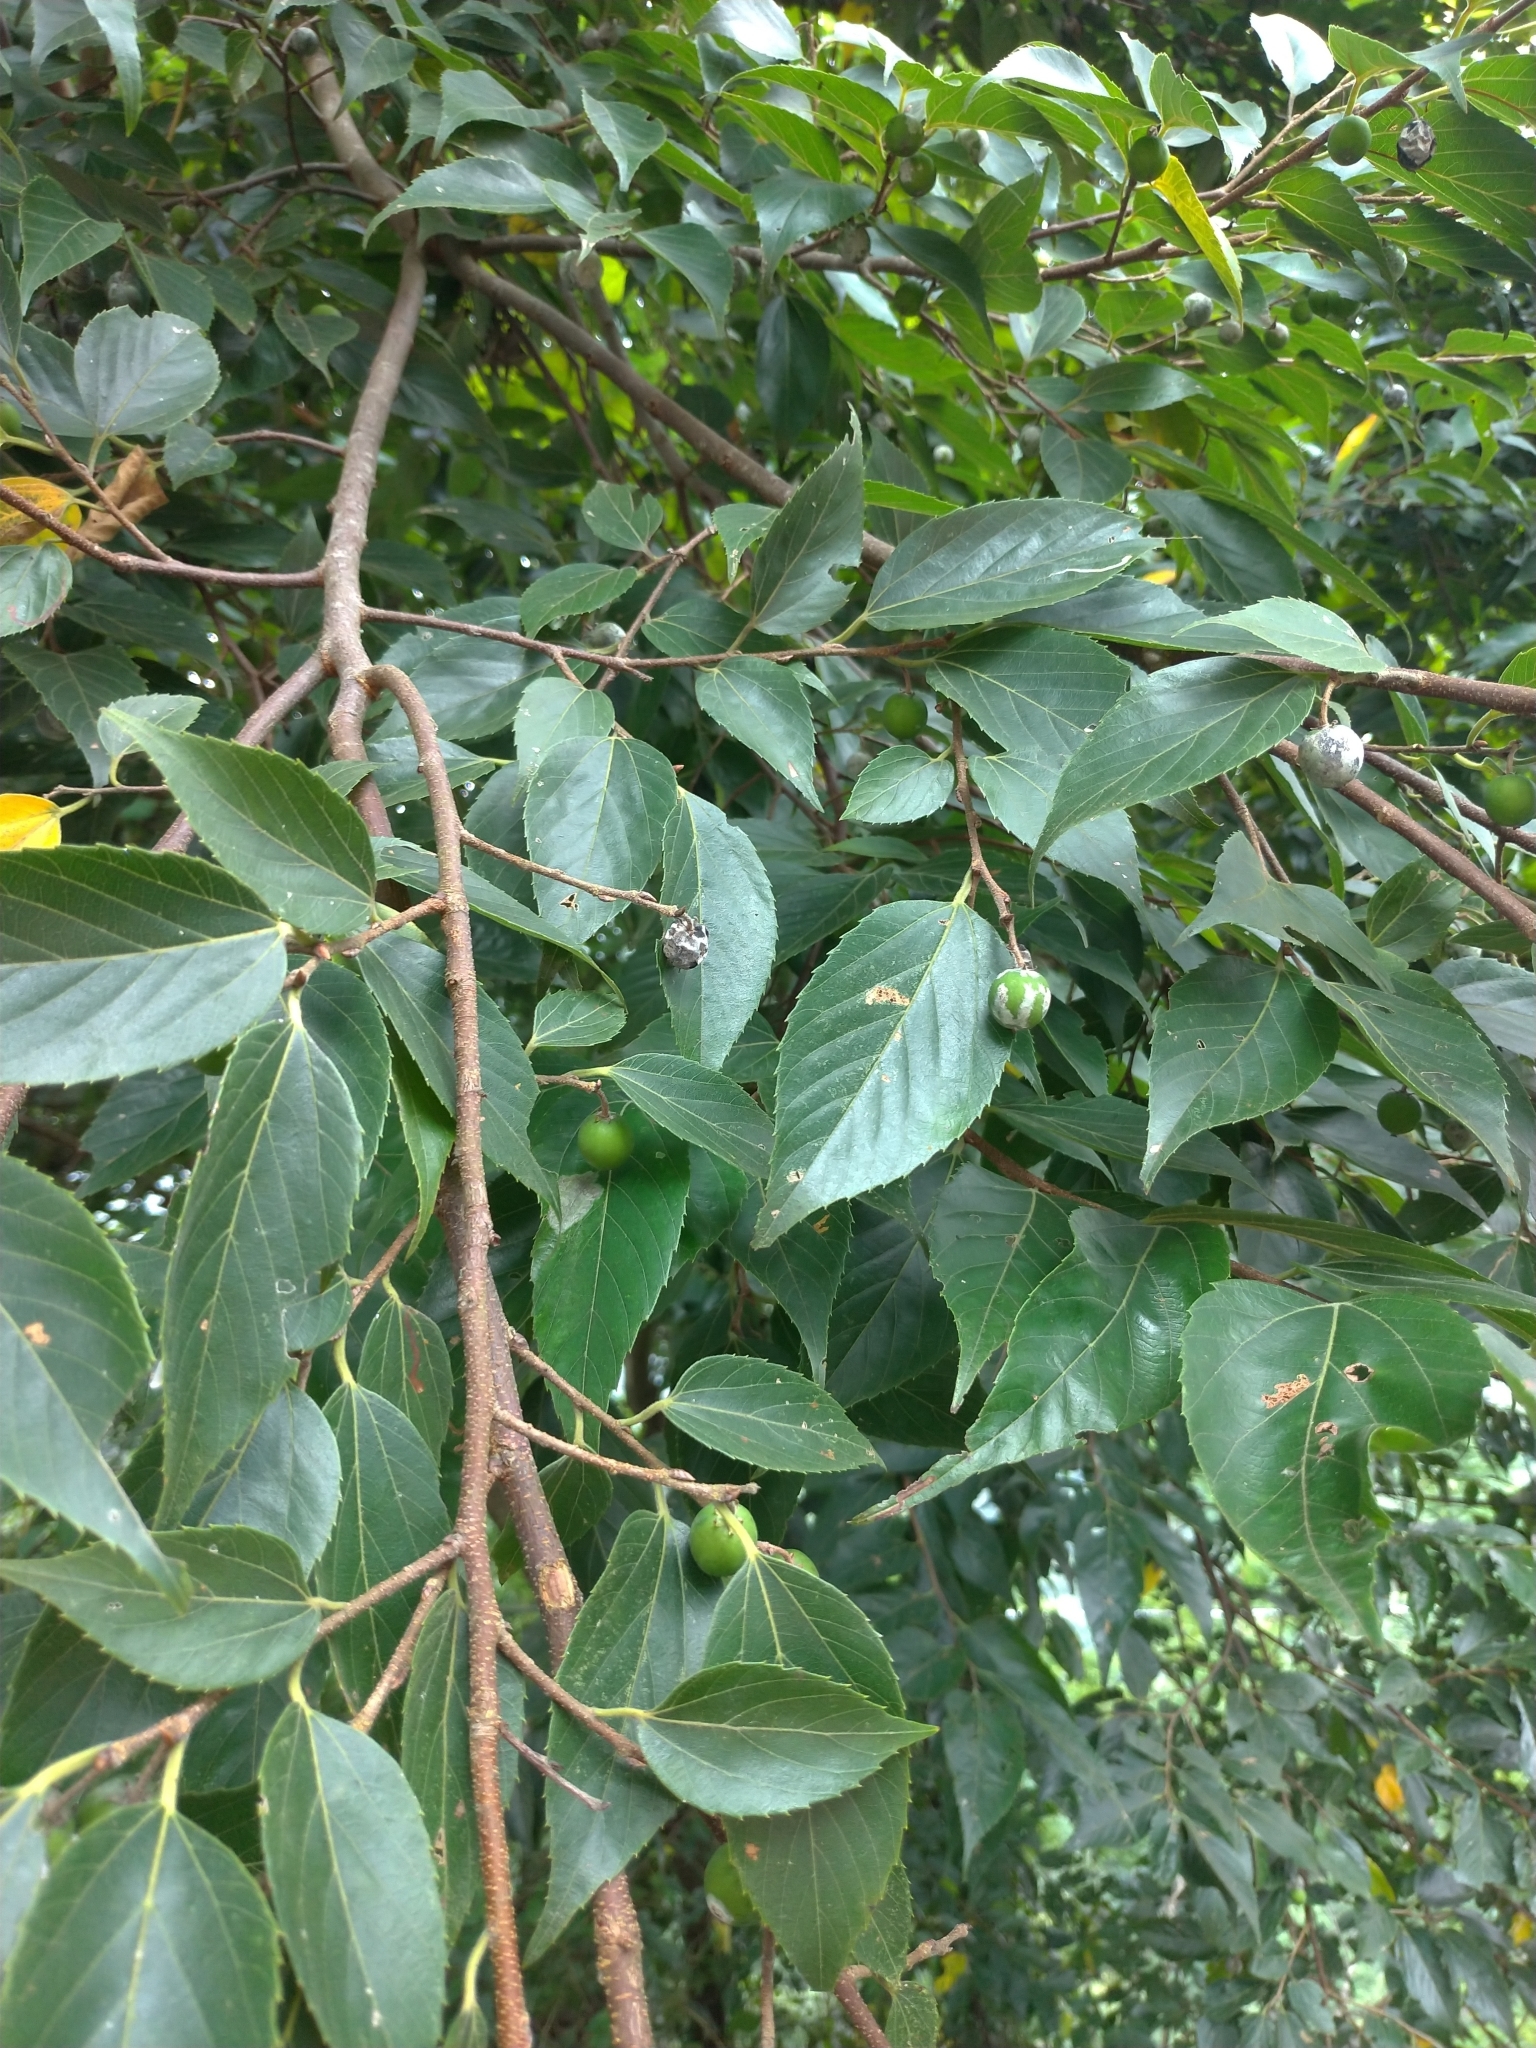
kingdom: Plantae
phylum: Tracheophyta
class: Magnoliopsida
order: Rosales
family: Cannabaceae
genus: Celtis
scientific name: Celtis sinensis
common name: Chinese hackberry
